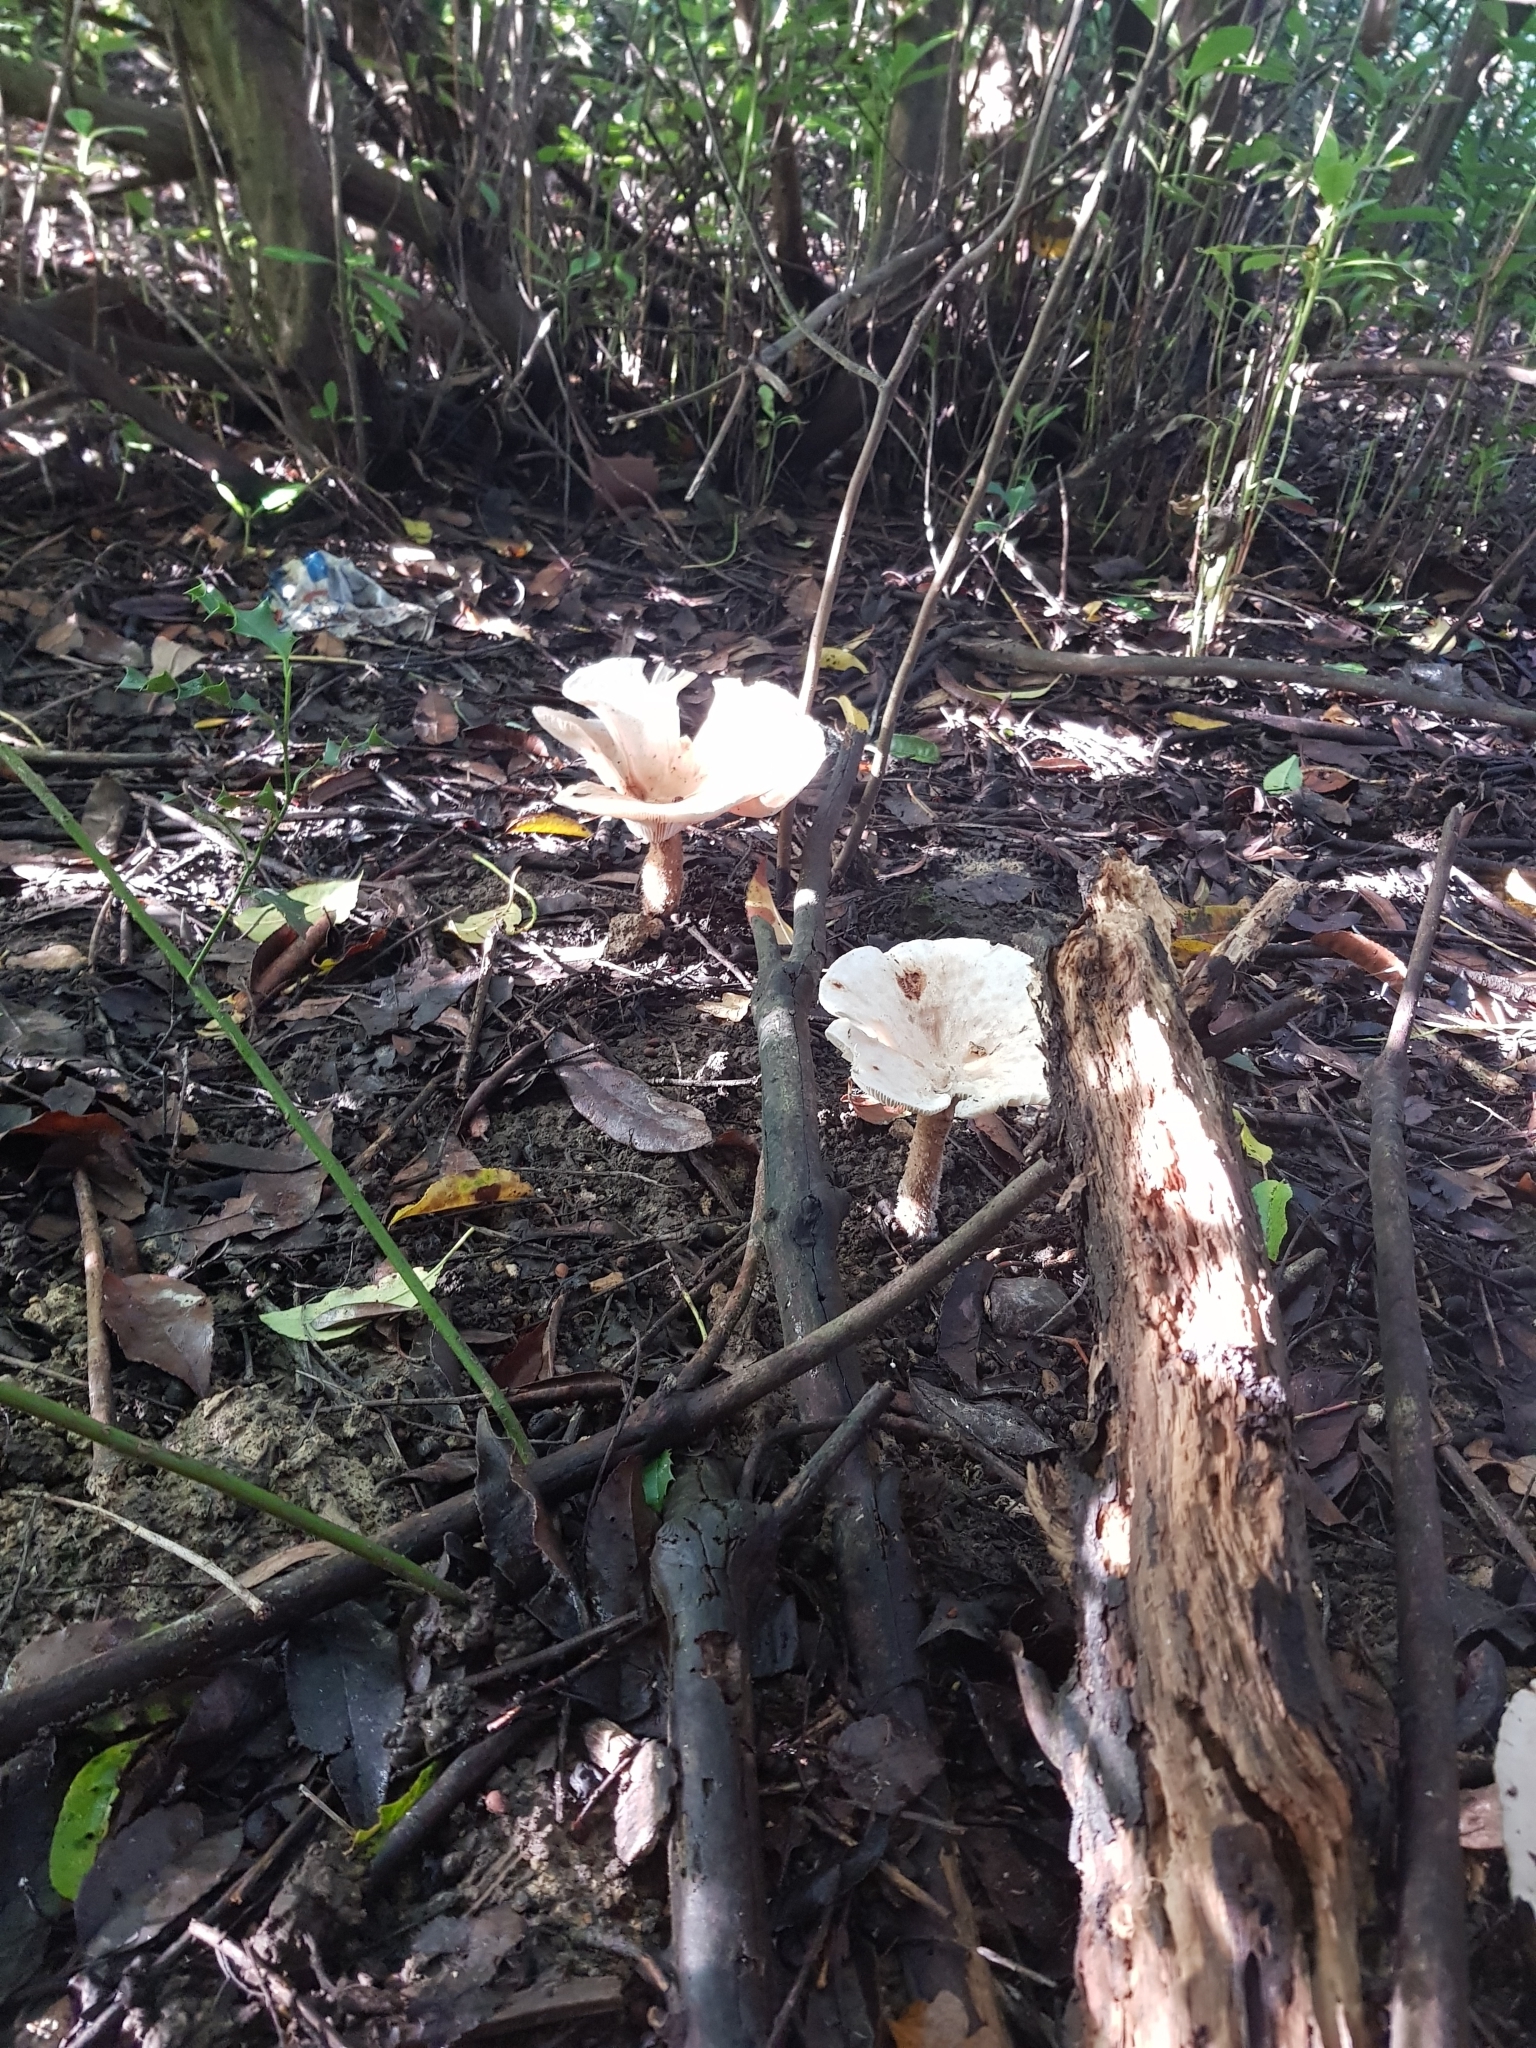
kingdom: Fungi
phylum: Basidiomycota
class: Agaricomycetes
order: Agaricales
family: Tricholomataceae
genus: Infundibulicybe
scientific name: Infundibulicybe geotropa
